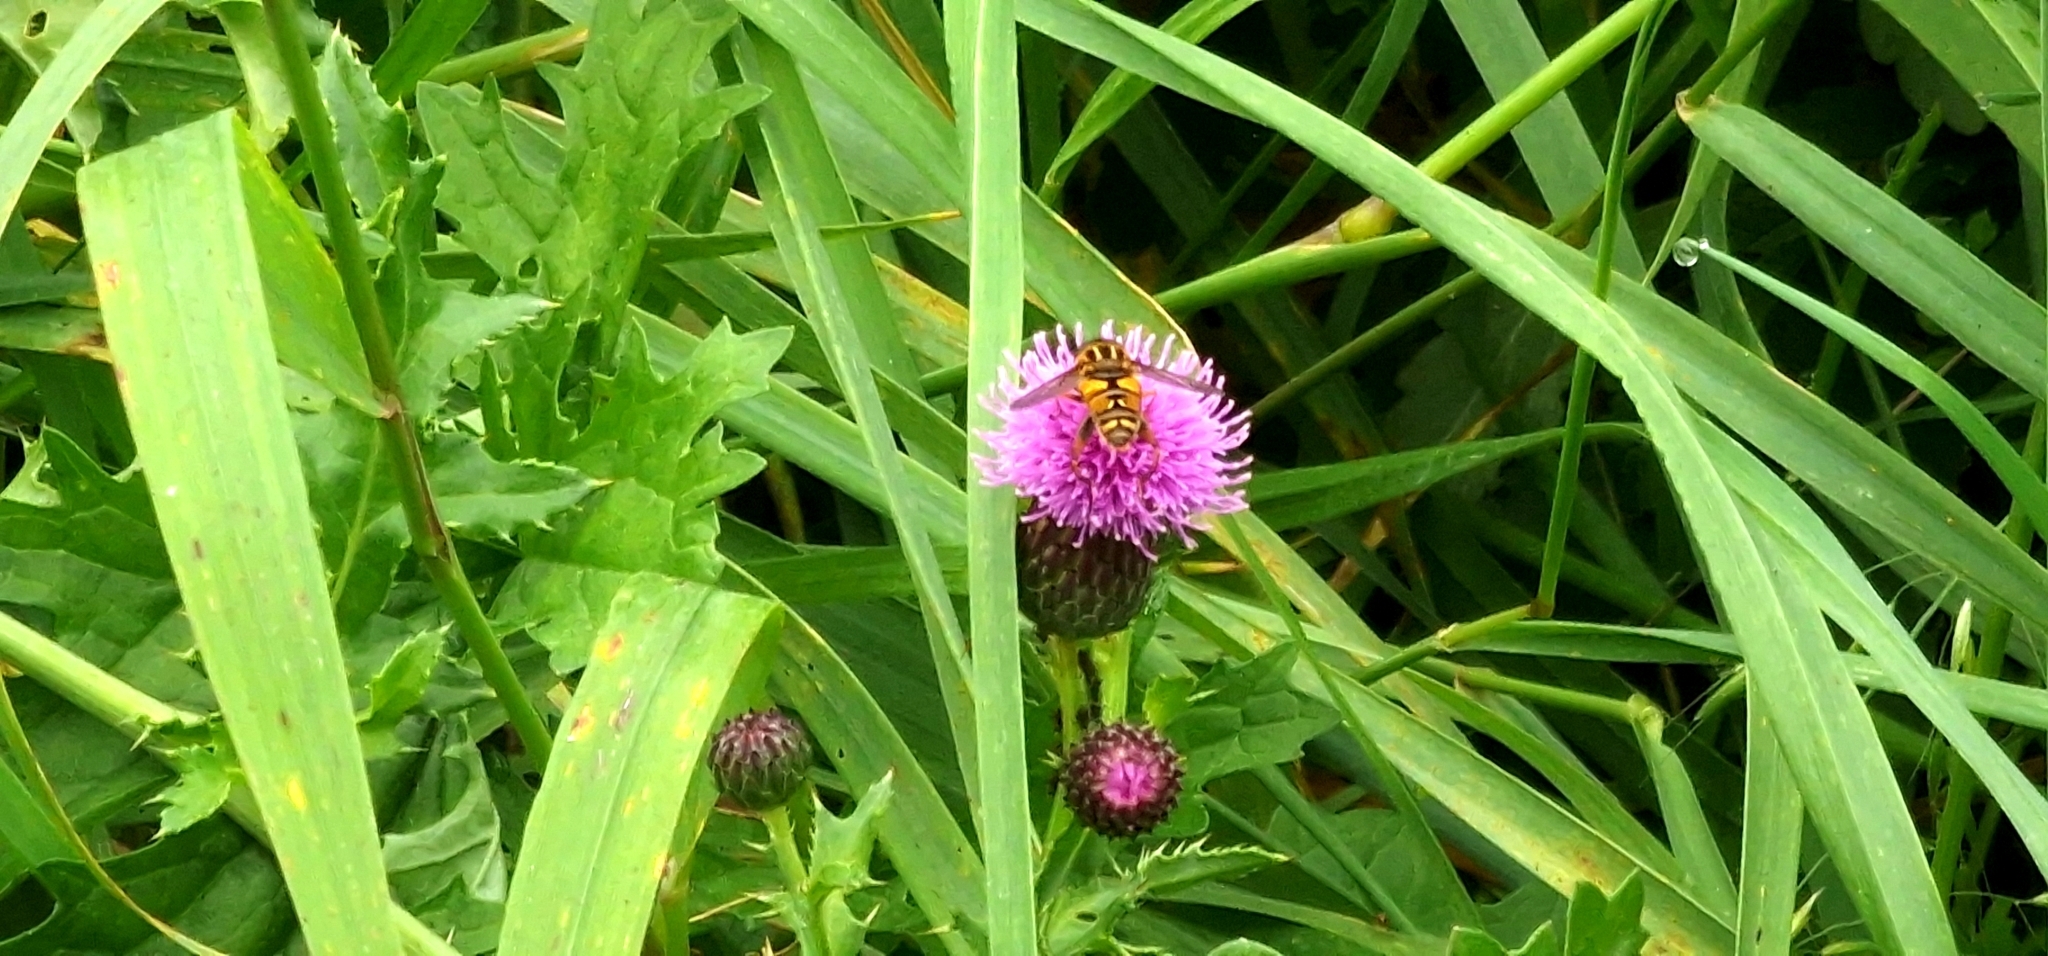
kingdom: Animalia
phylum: Arthropoda
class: Insecta
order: Diptera
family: Syrphidae
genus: Helophilus
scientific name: Helophilus pendulus
